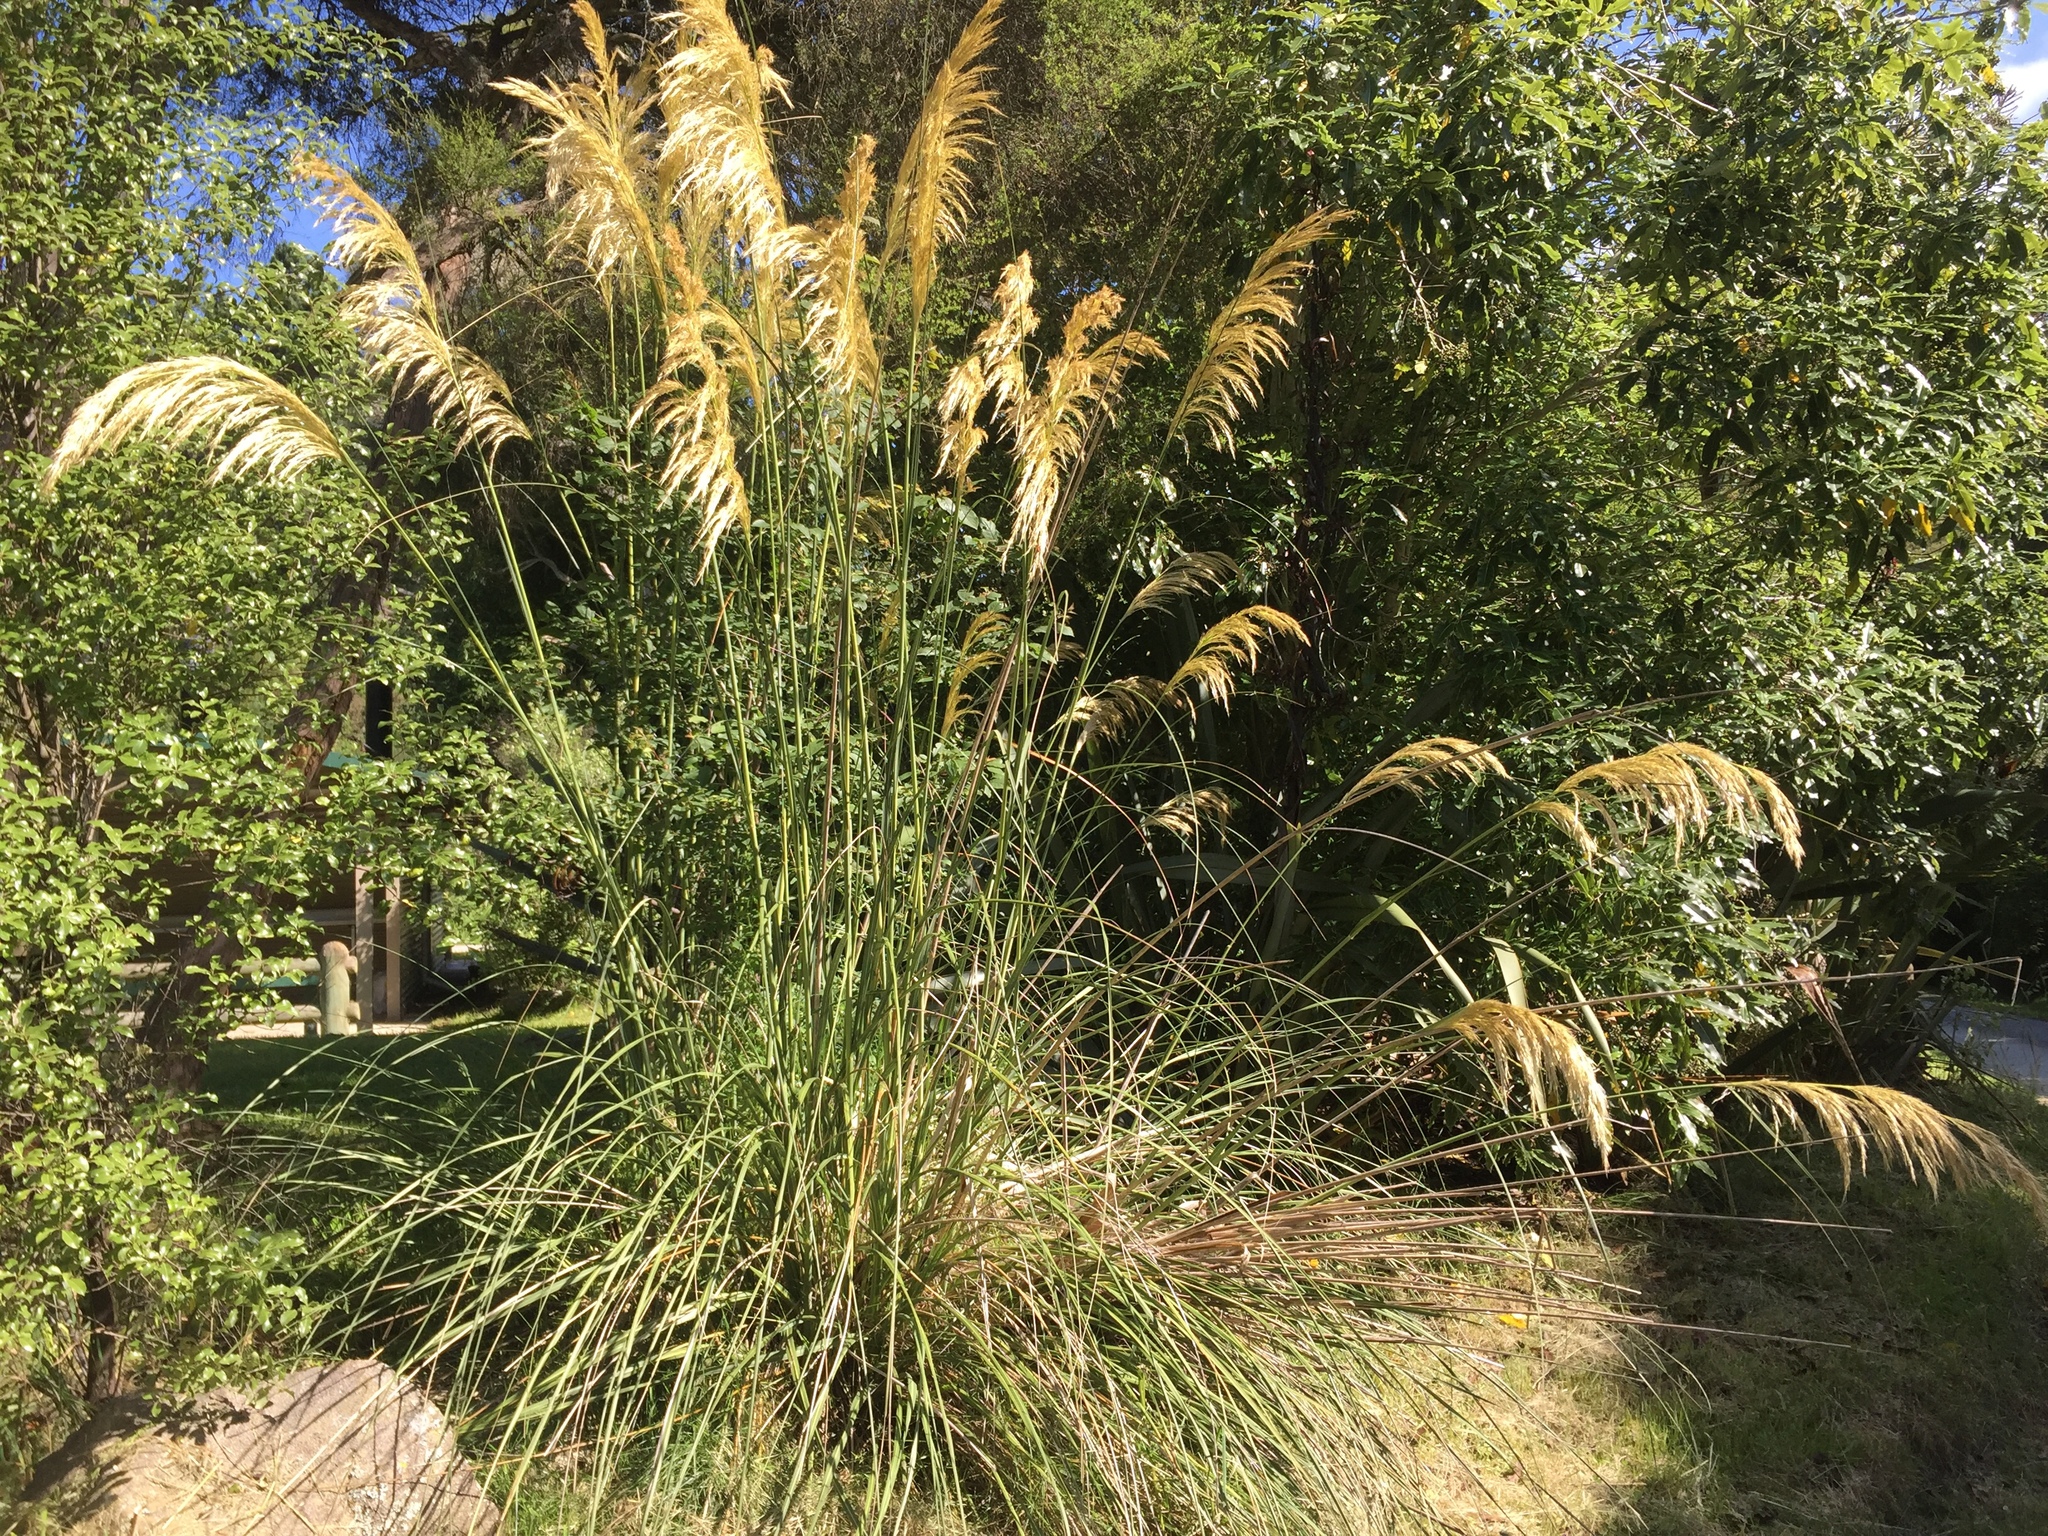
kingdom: Plantae
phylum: Tracheophyta
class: Liliopsida
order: Poales
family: Poaceae
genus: Austroderia
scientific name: Austroderia richardii
